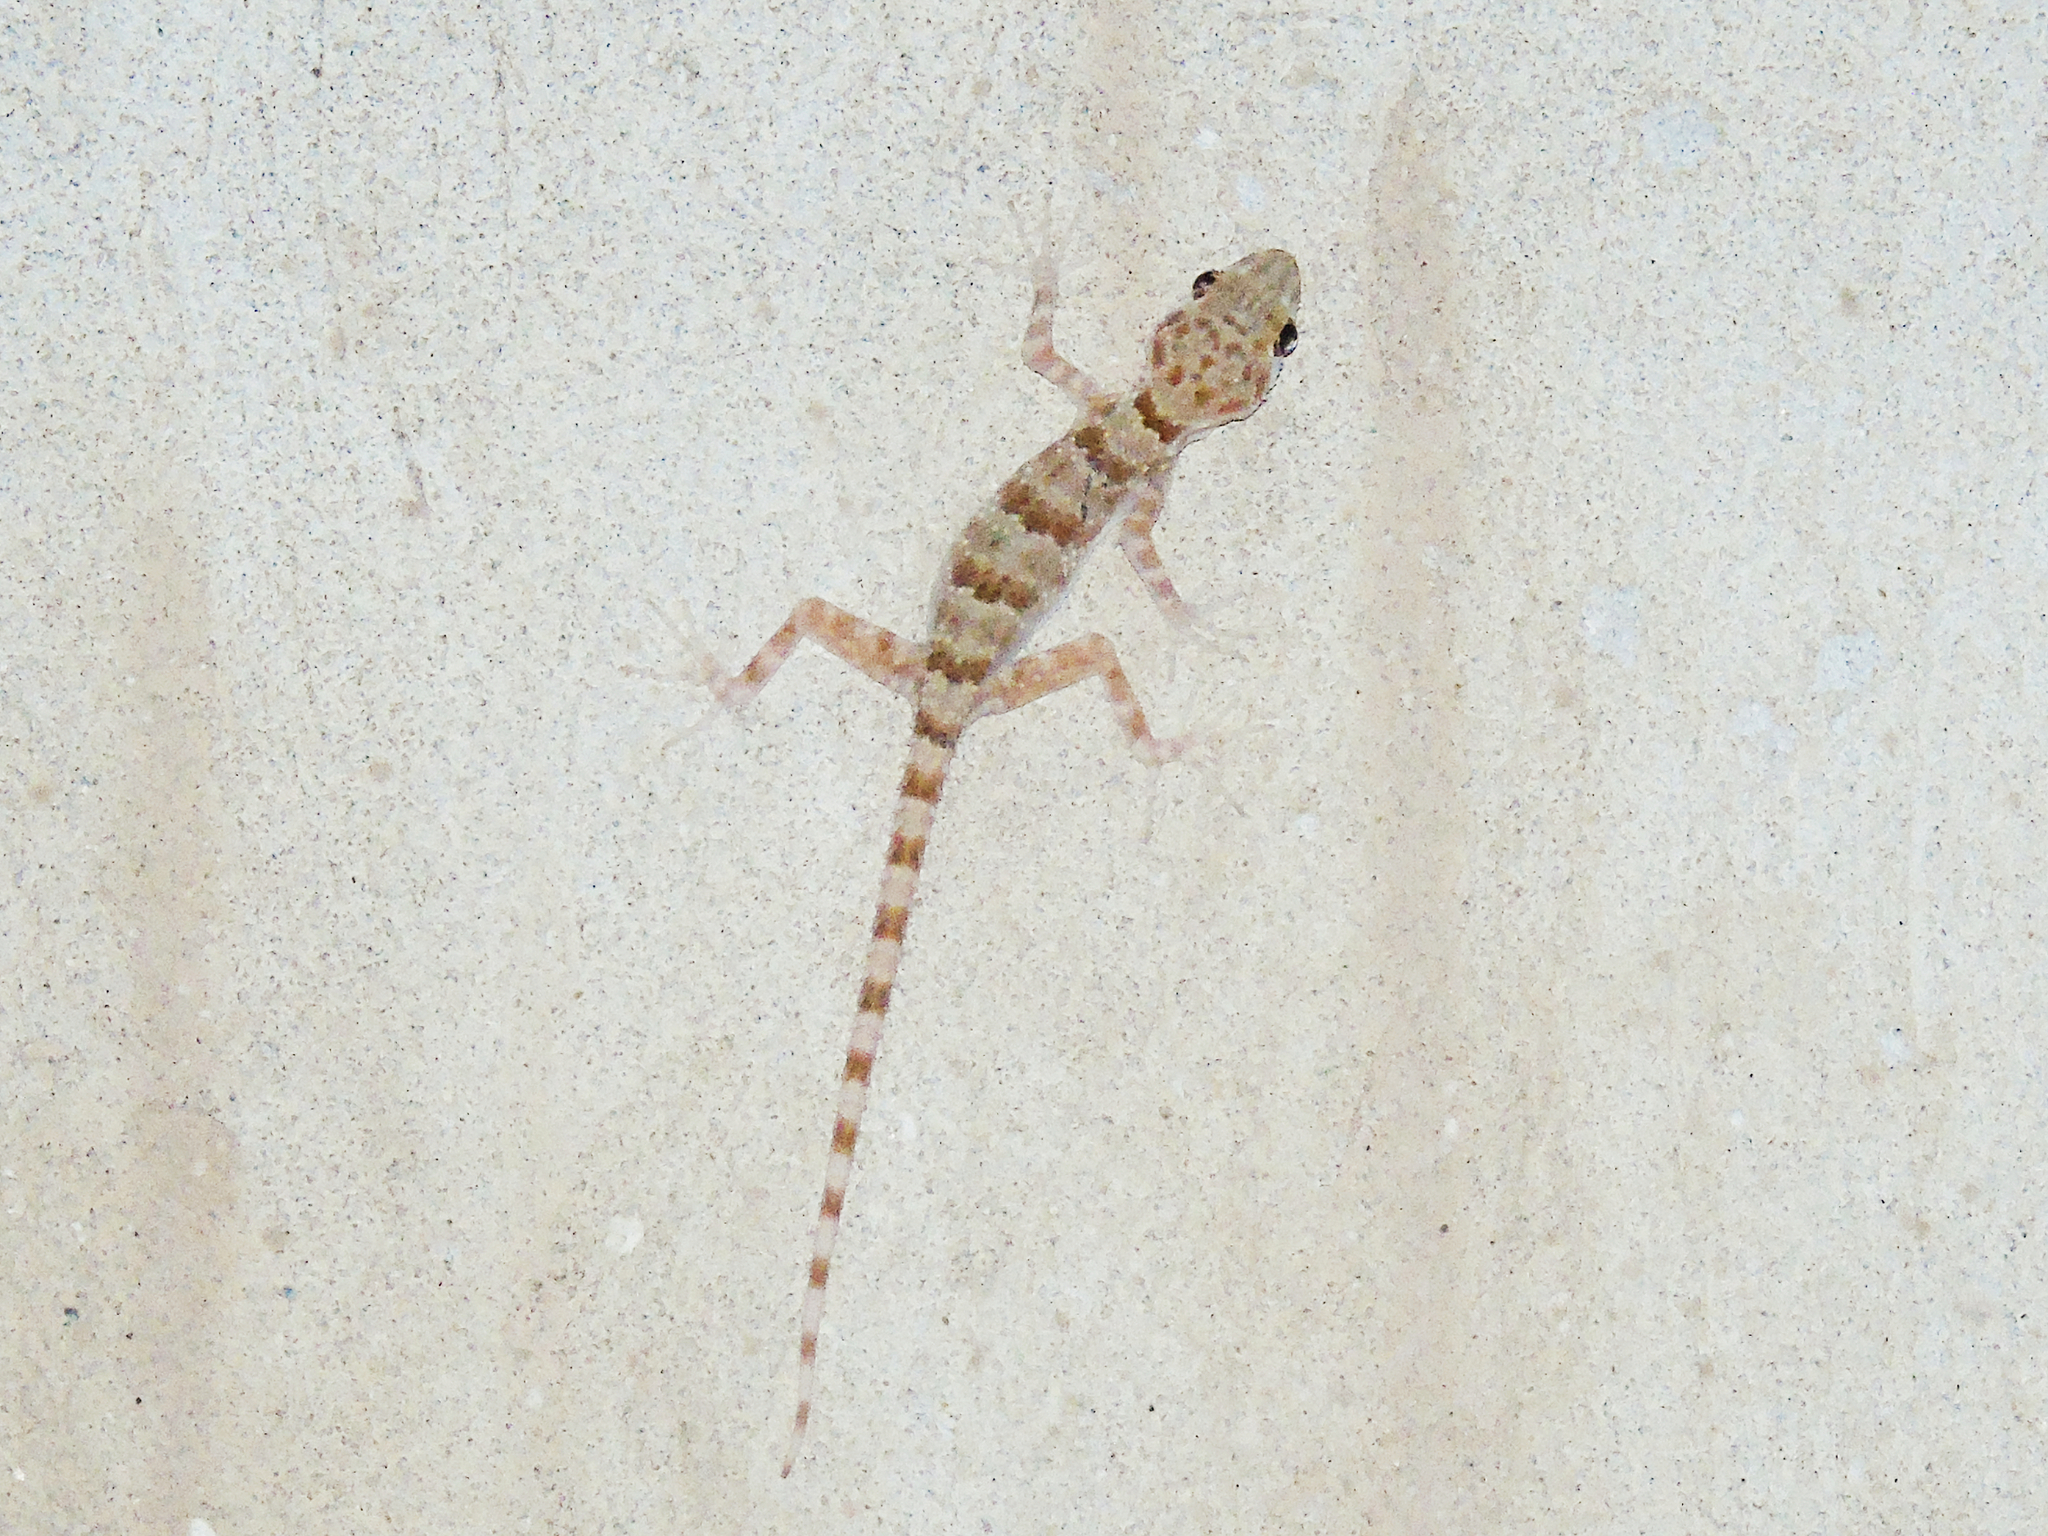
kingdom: Animalia
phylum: Chordata
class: Squamata
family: Gekkonidae
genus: Tenuidactylus
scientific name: Tenuidactylus bogdanovi
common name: Bogdanov’s thin-toed gecko
